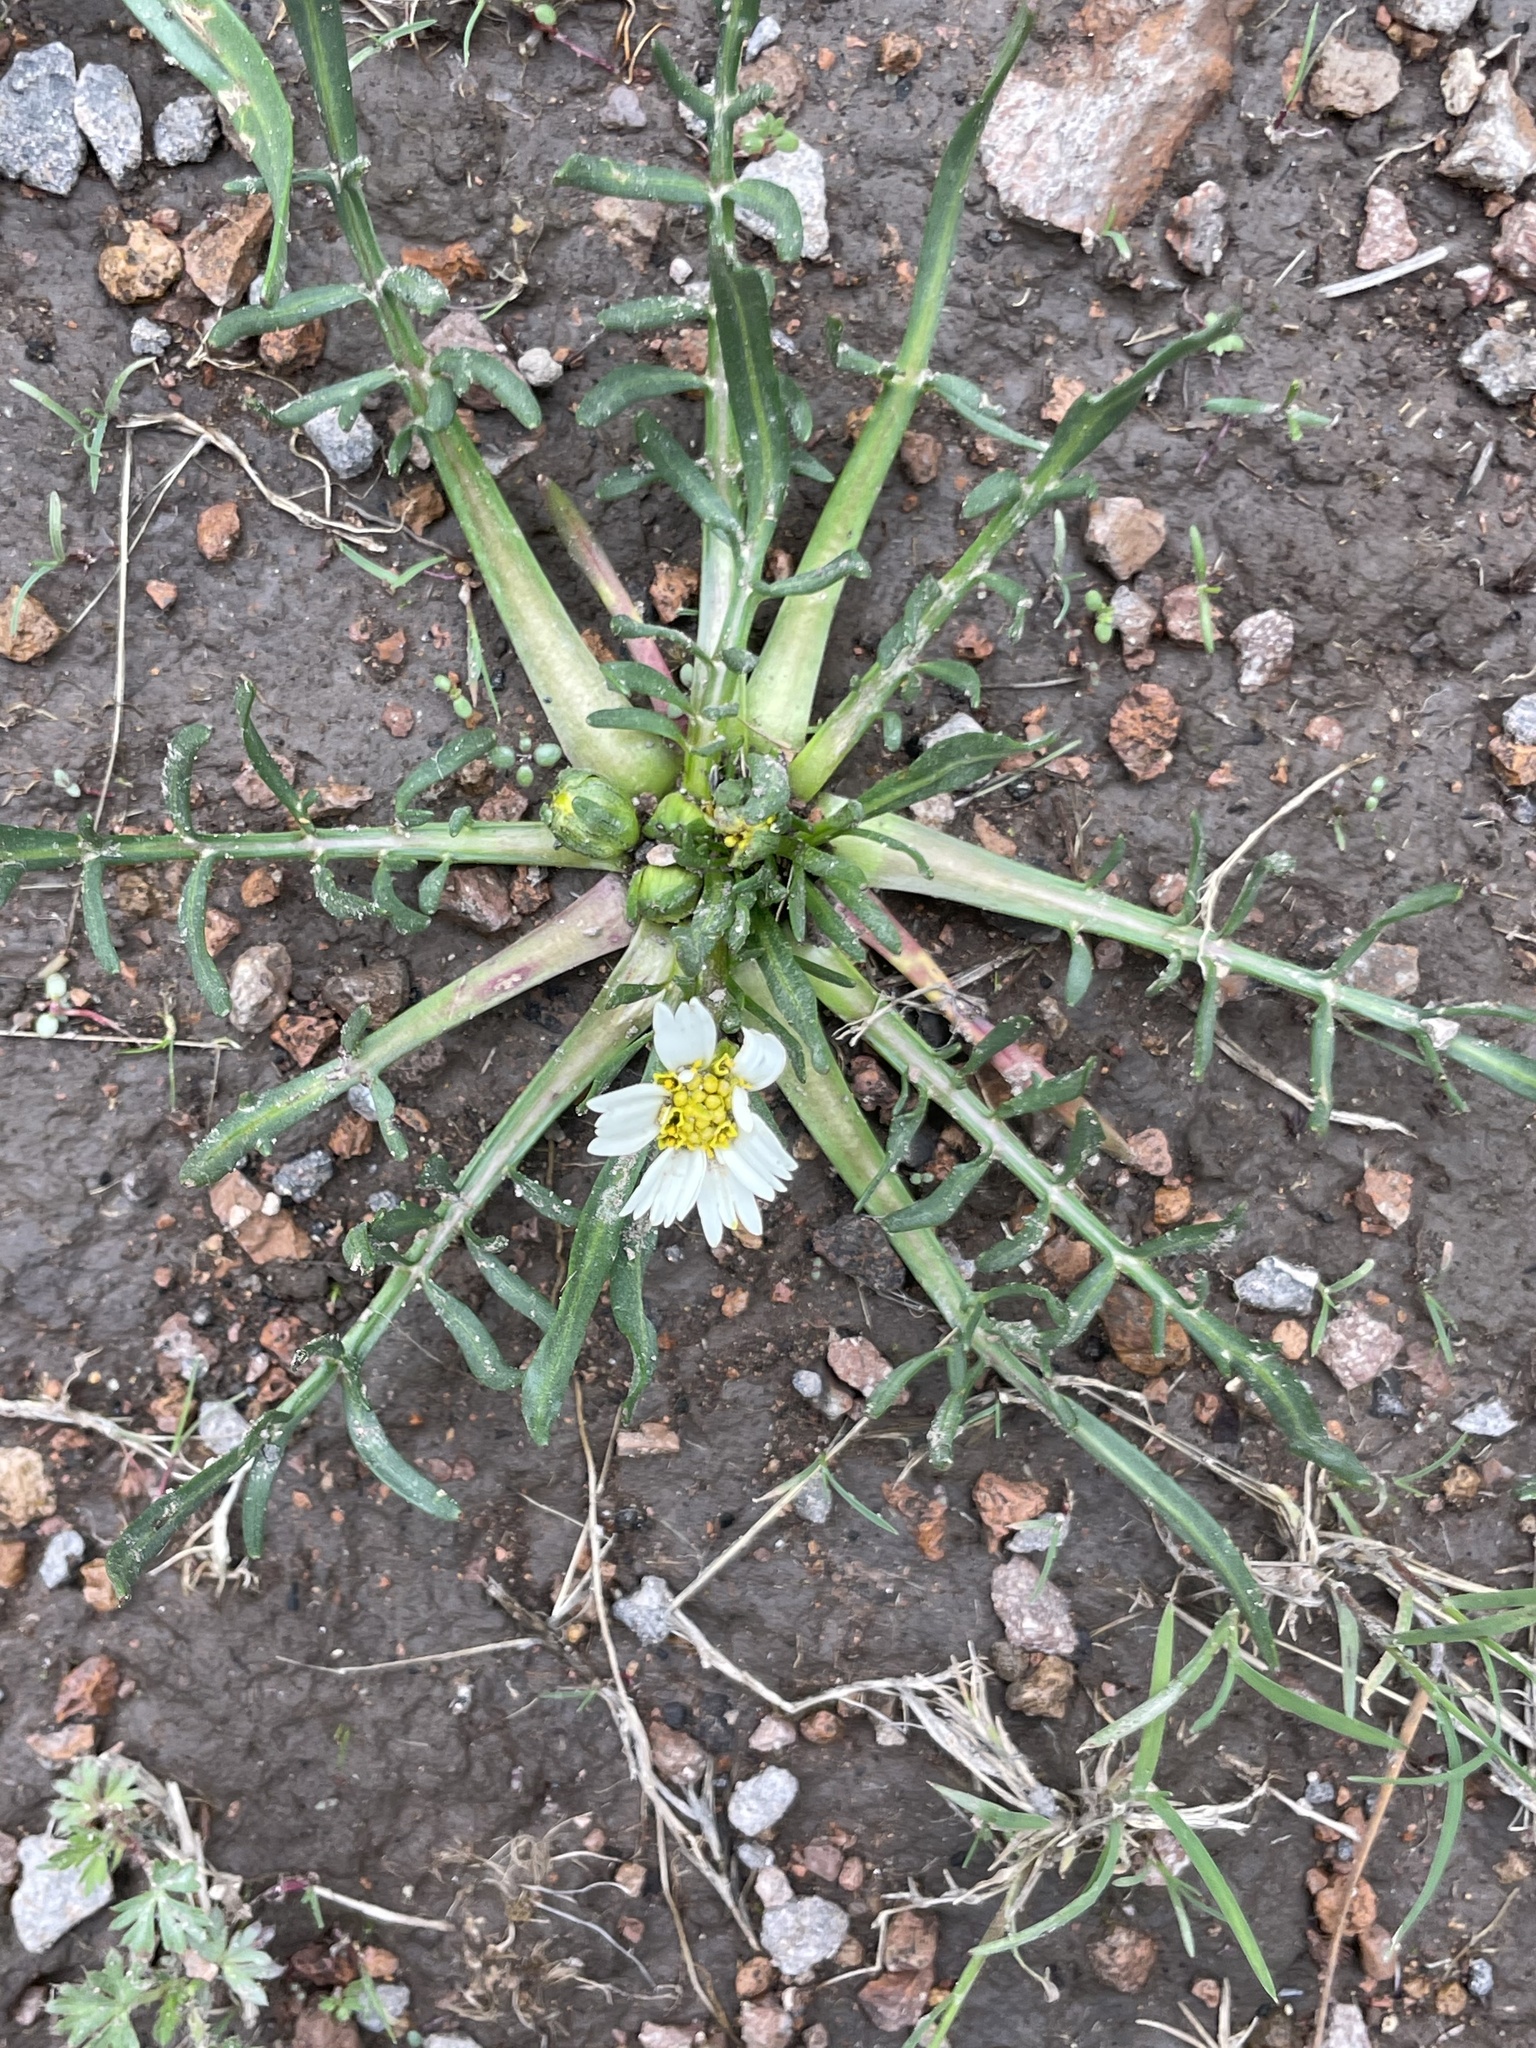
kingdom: Plantae
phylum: Tracheophyta
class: Magnoliopsida
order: Asterales
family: Asteraceae
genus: Chromolepis
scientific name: Chromolepis heterophylla
